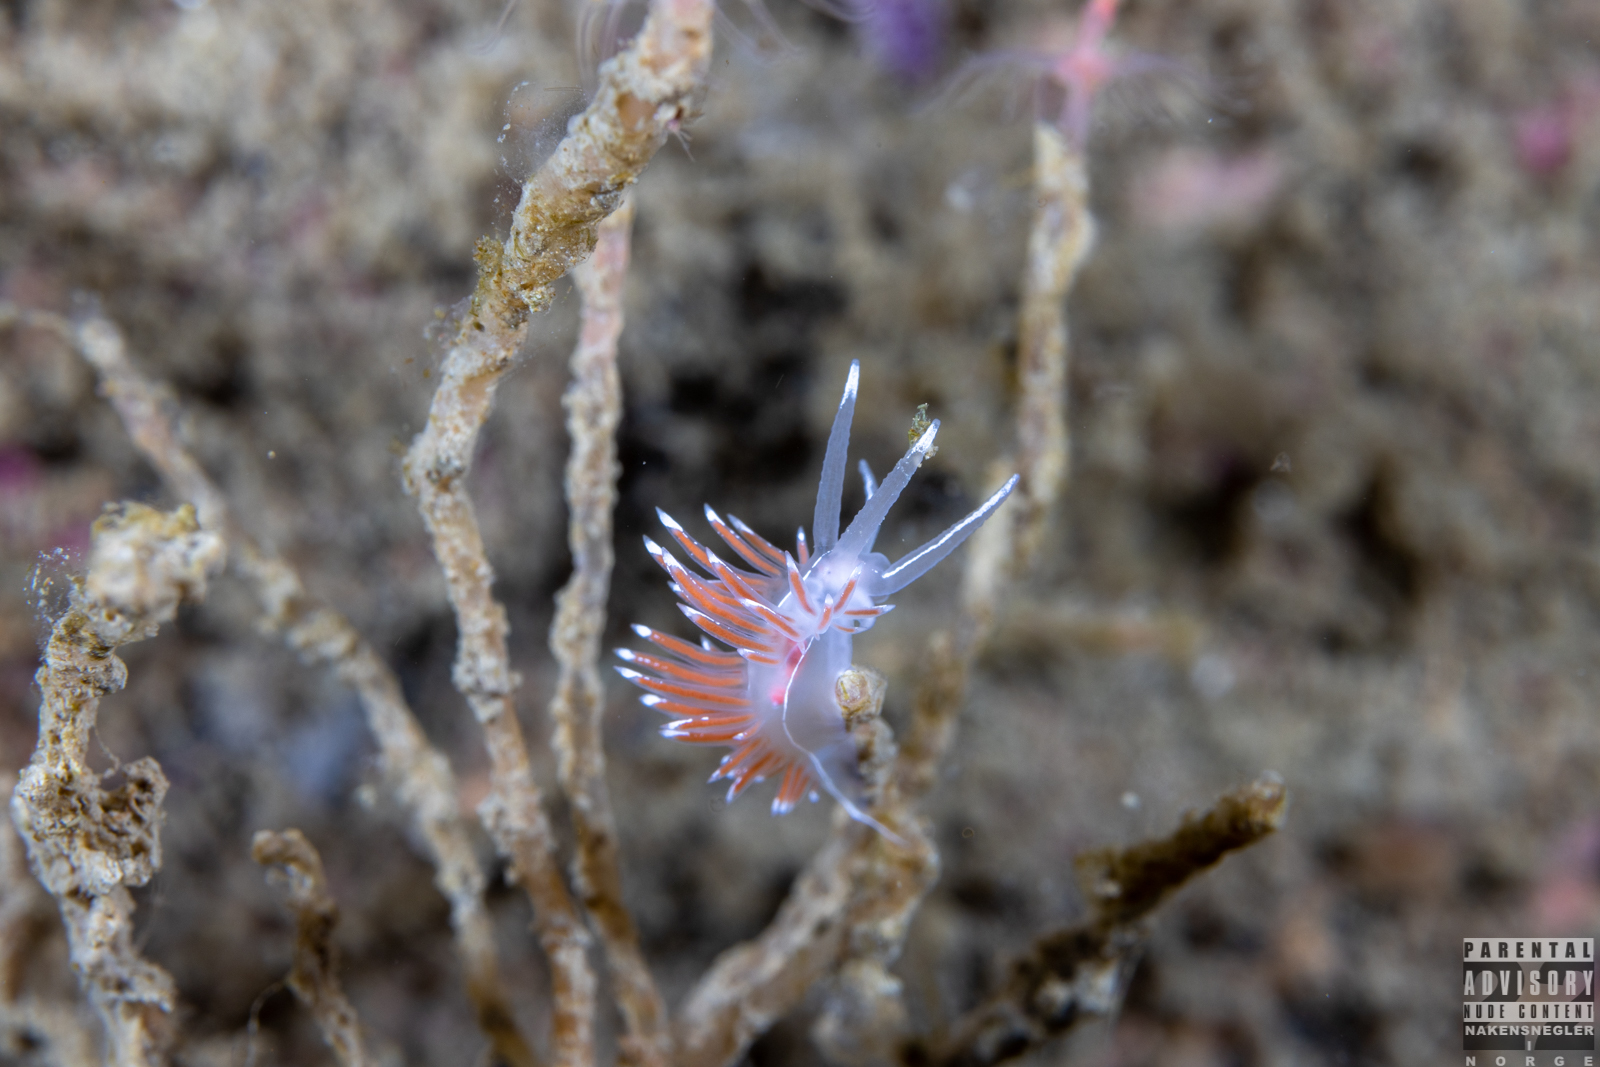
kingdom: Animalia
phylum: Mollusca
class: Gastropoda
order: Nudibranchia
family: Coryphellidae
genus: Coryphella
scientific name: Coryphella lineata
